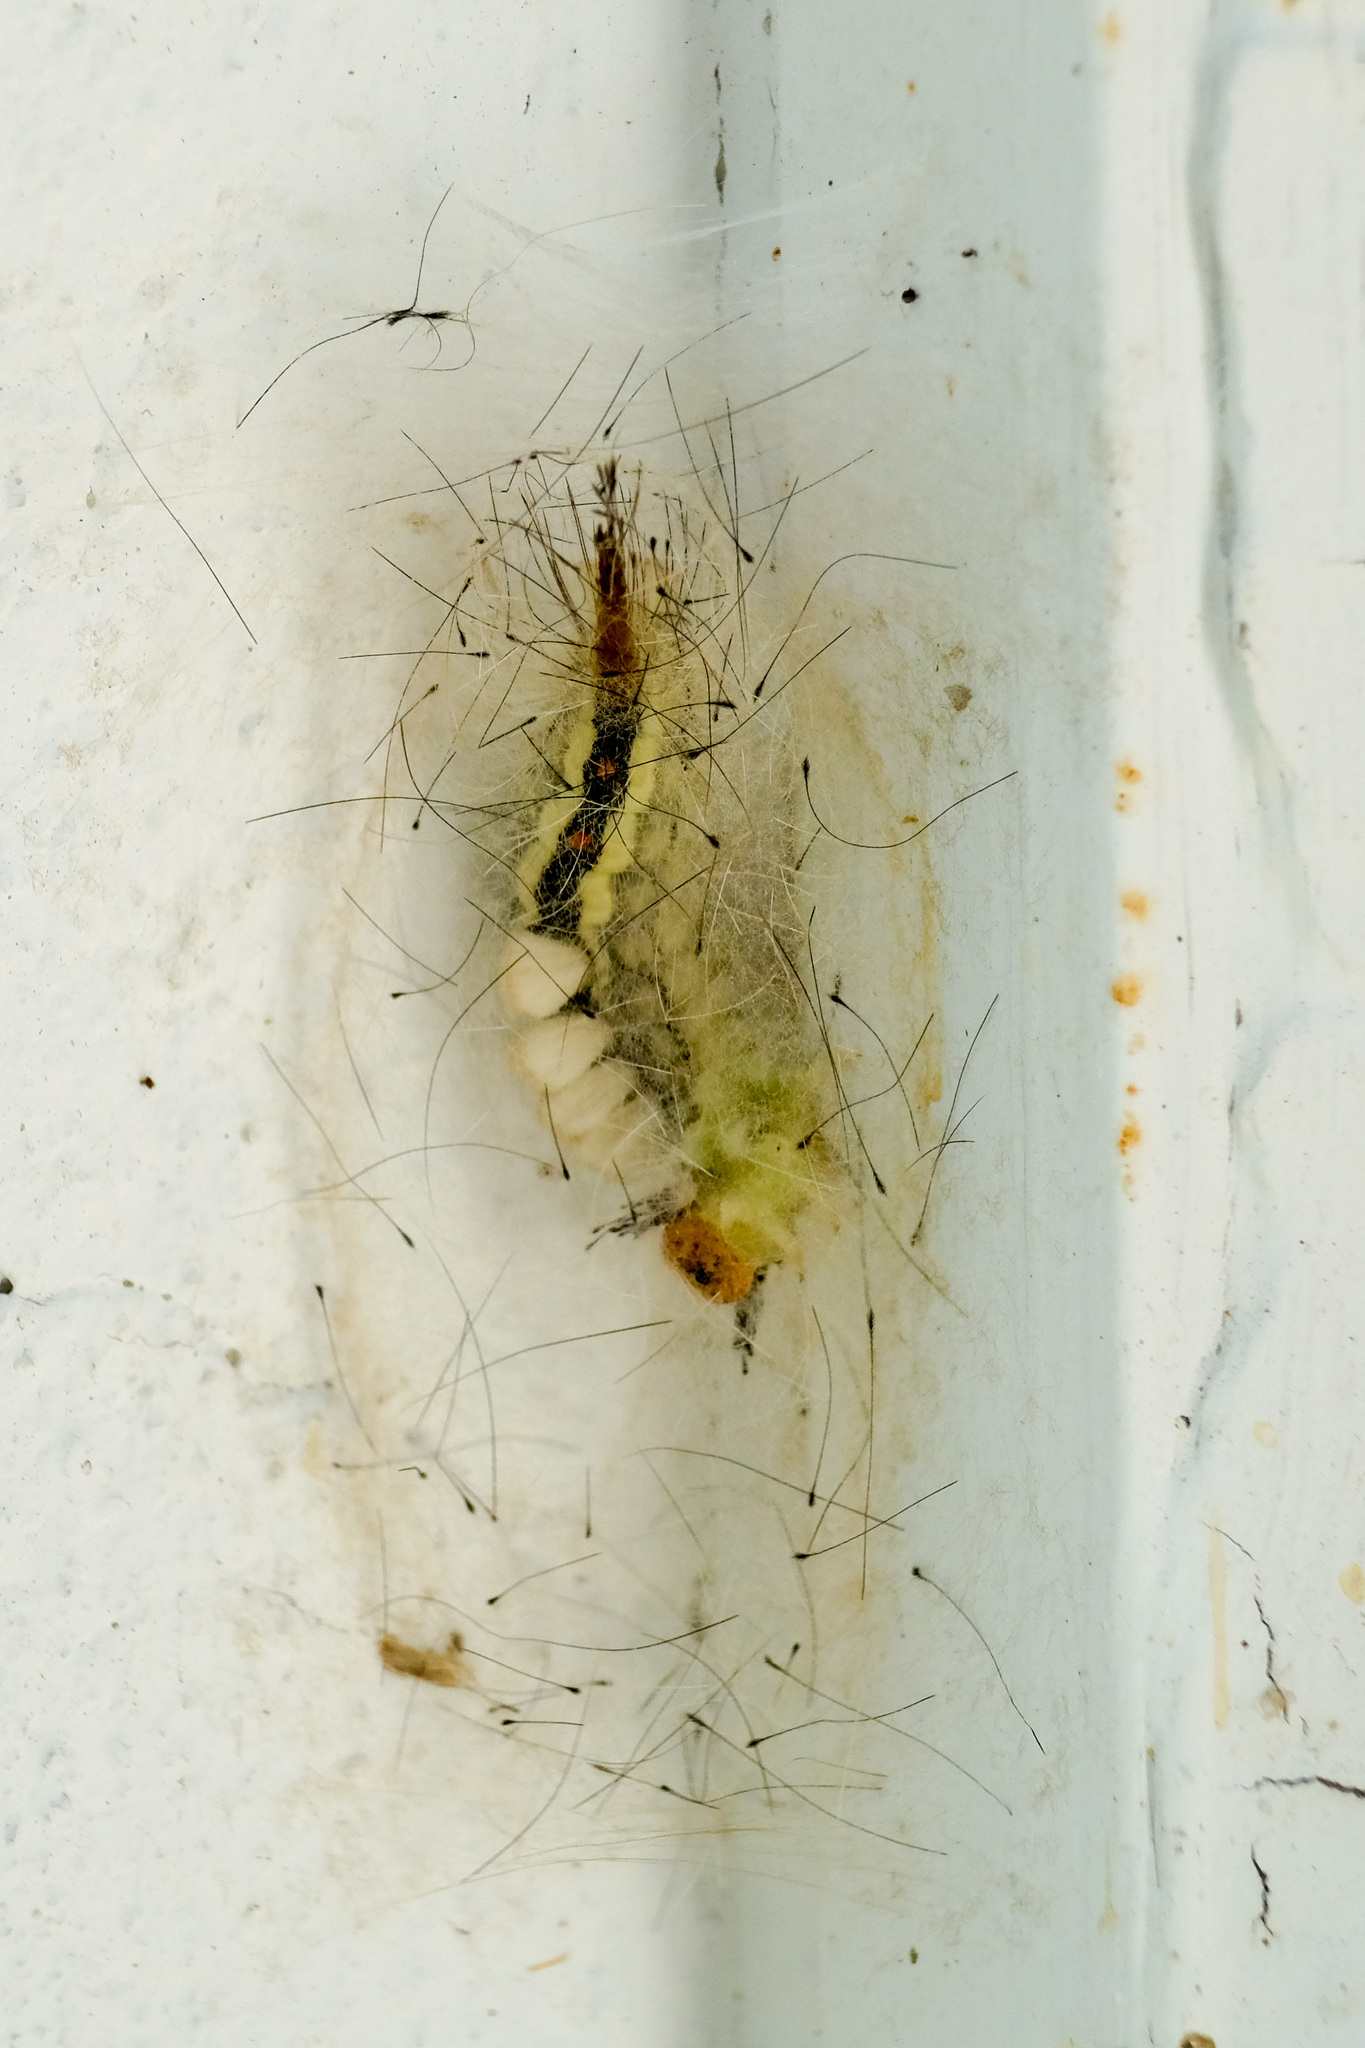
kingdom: Animalia
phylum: Arthropoda
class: Insecta
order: Lepidoptera
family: Erebidae
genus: Orgyia
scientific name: Orgyia leucostigma
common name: White-marked tussock moth
